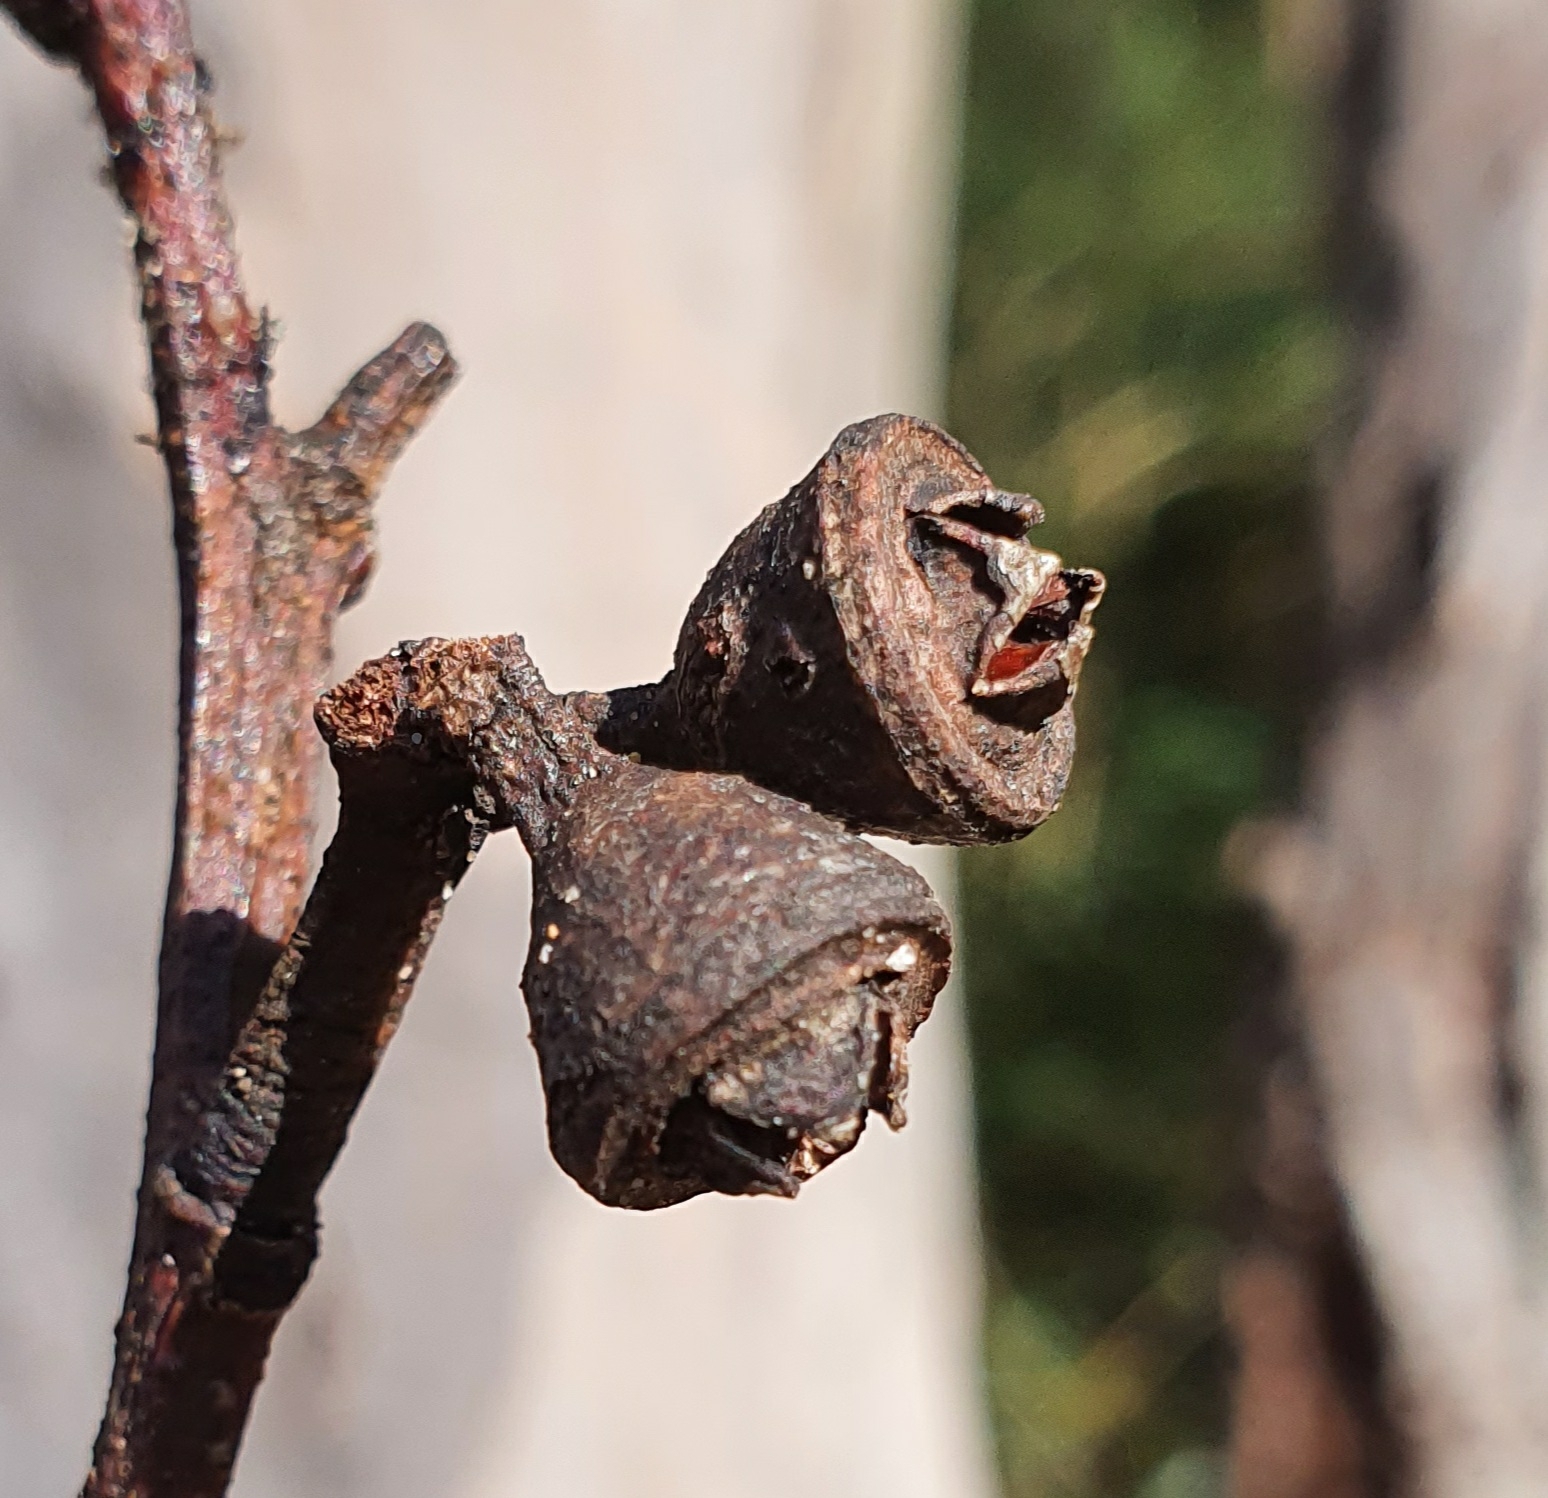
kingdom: Plantae
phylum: Tracheophyta
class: Magnoliopsida
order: Myrtales
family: Myrtaceae
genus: Eucalyptus
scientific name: Eucalyptus punctata
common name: Gray gum
